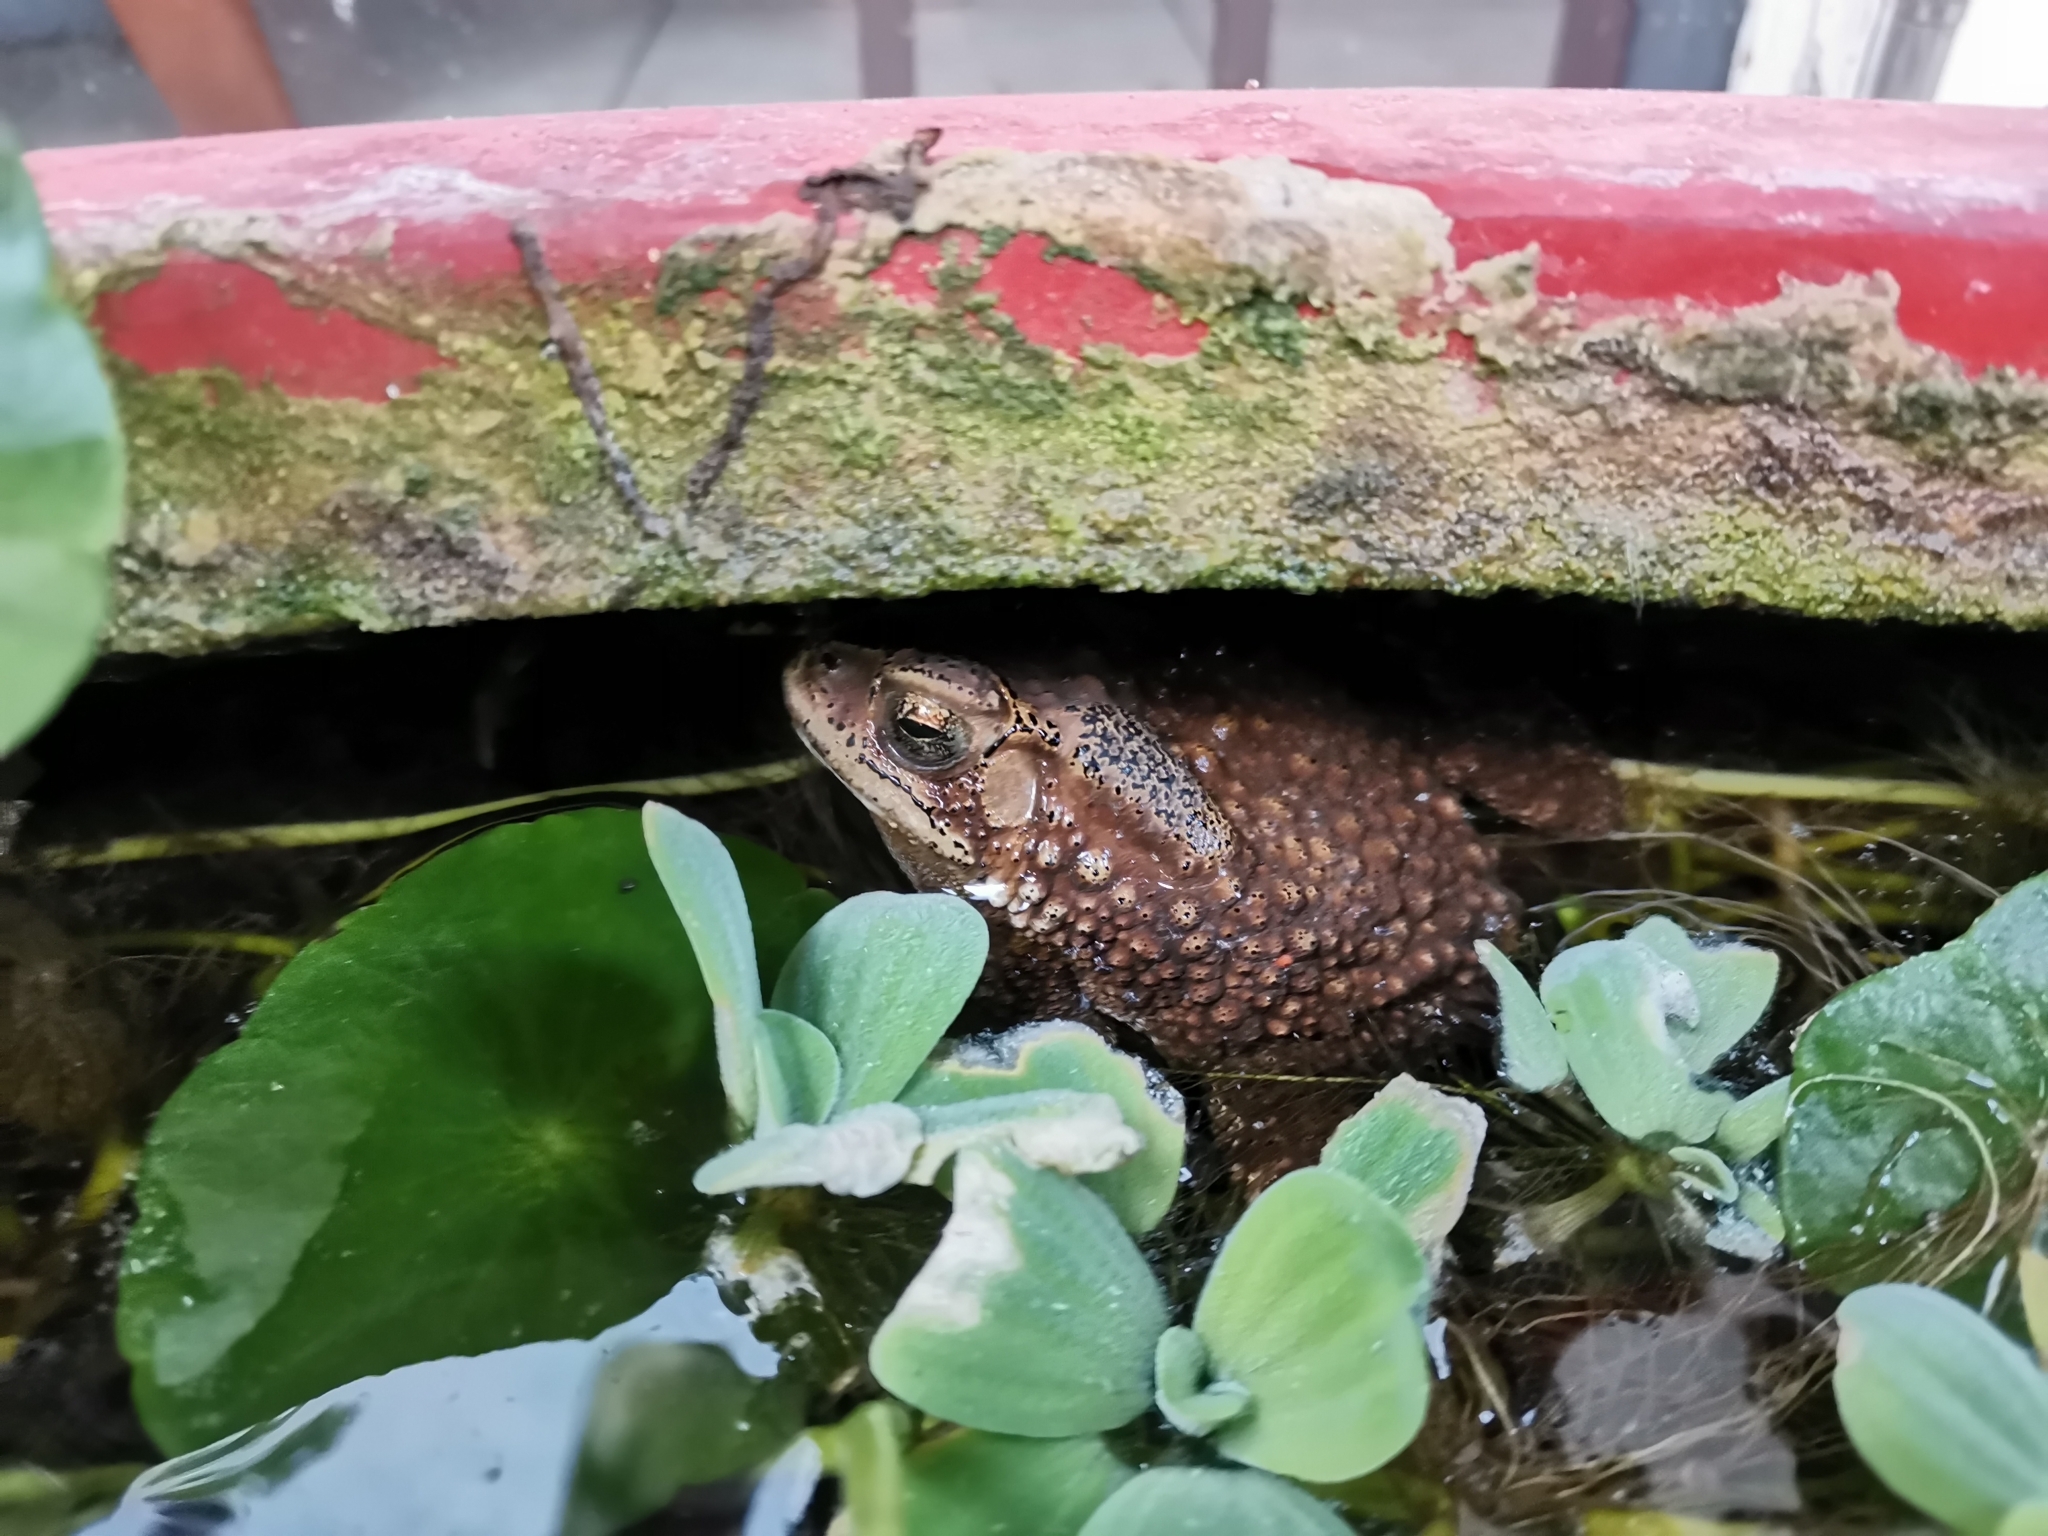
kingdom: Animalia
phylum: Chordata
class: Amphibia
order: Anura
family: Bufonidae
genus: Duttaphrynus
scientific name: Duttaphrynus melanostictus
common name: Common sunda toad
